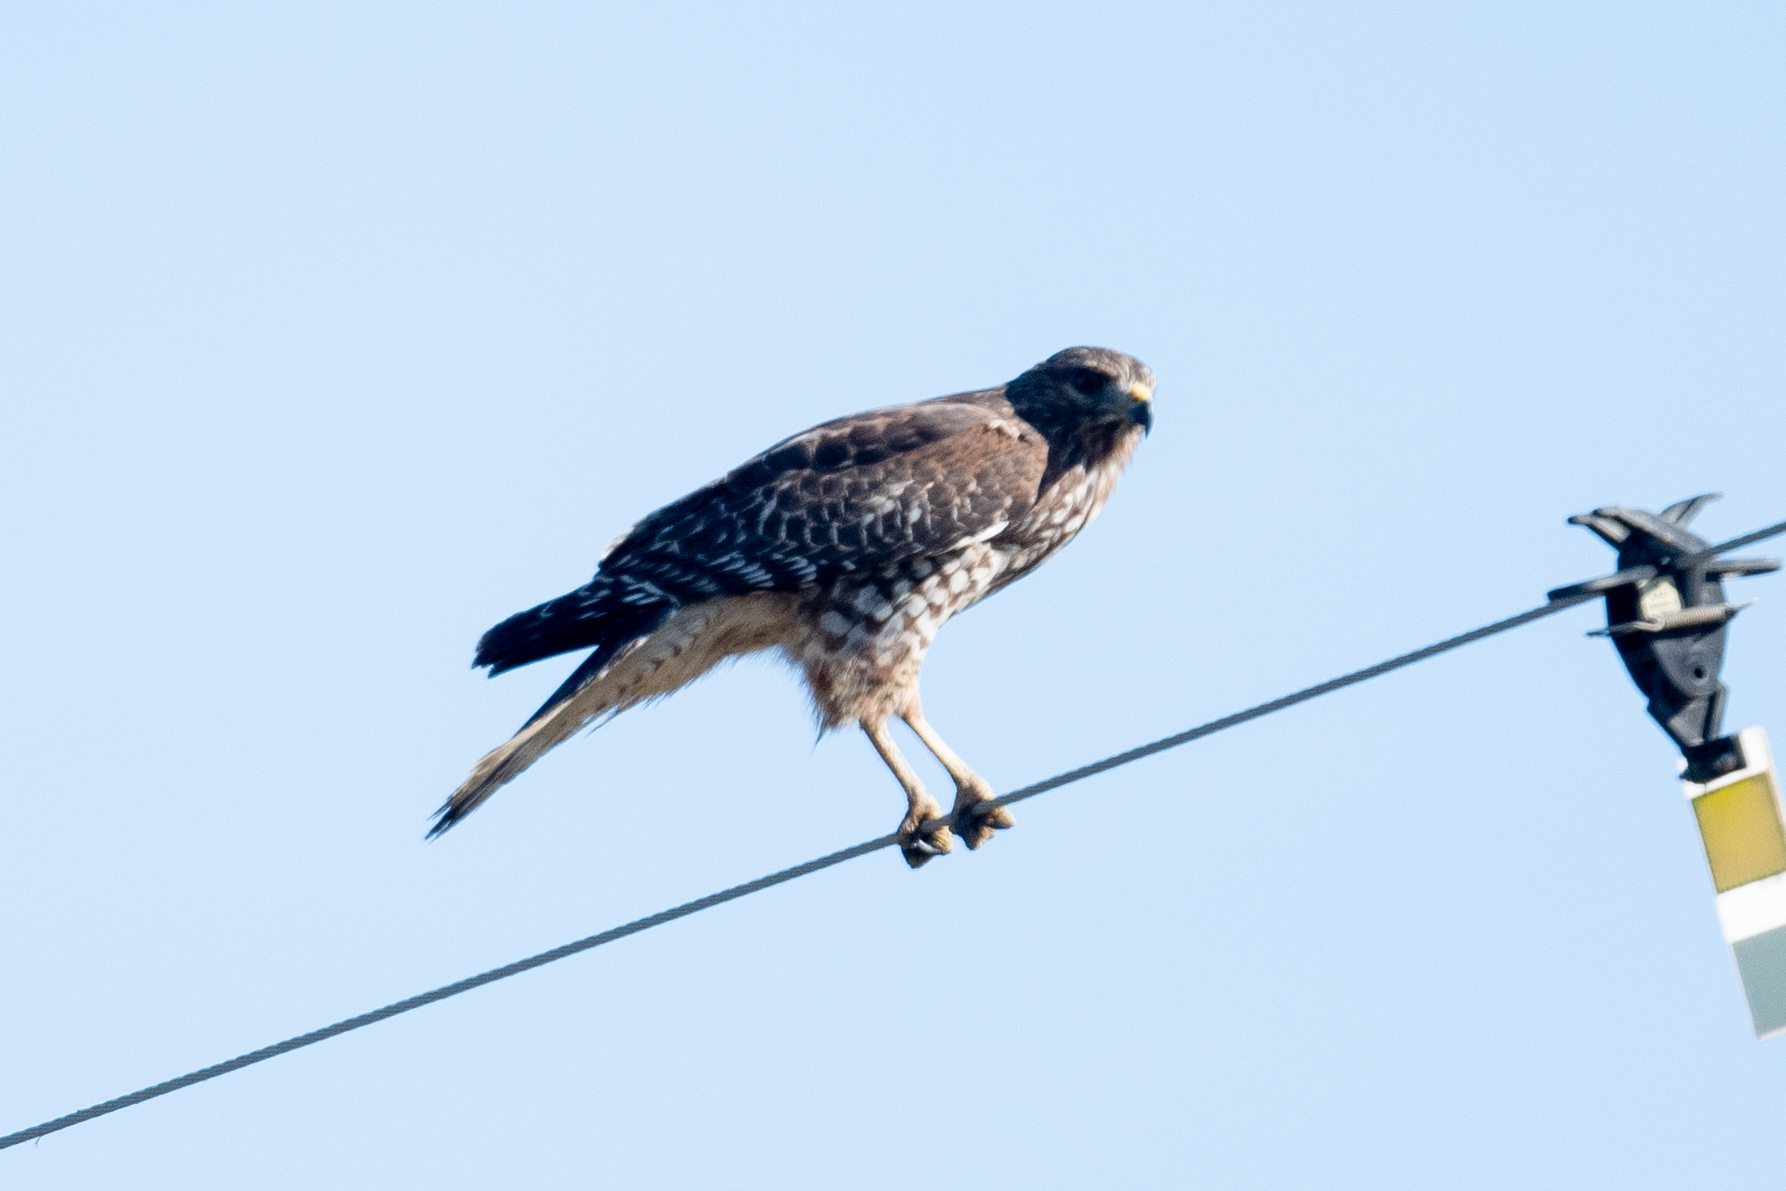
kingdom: Animalia
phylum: Chordata
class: Aves
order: Accipitriformes
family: Accipitridae
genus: Buteo
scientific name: Buteo lineatus
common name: Red-shouldered hawk
